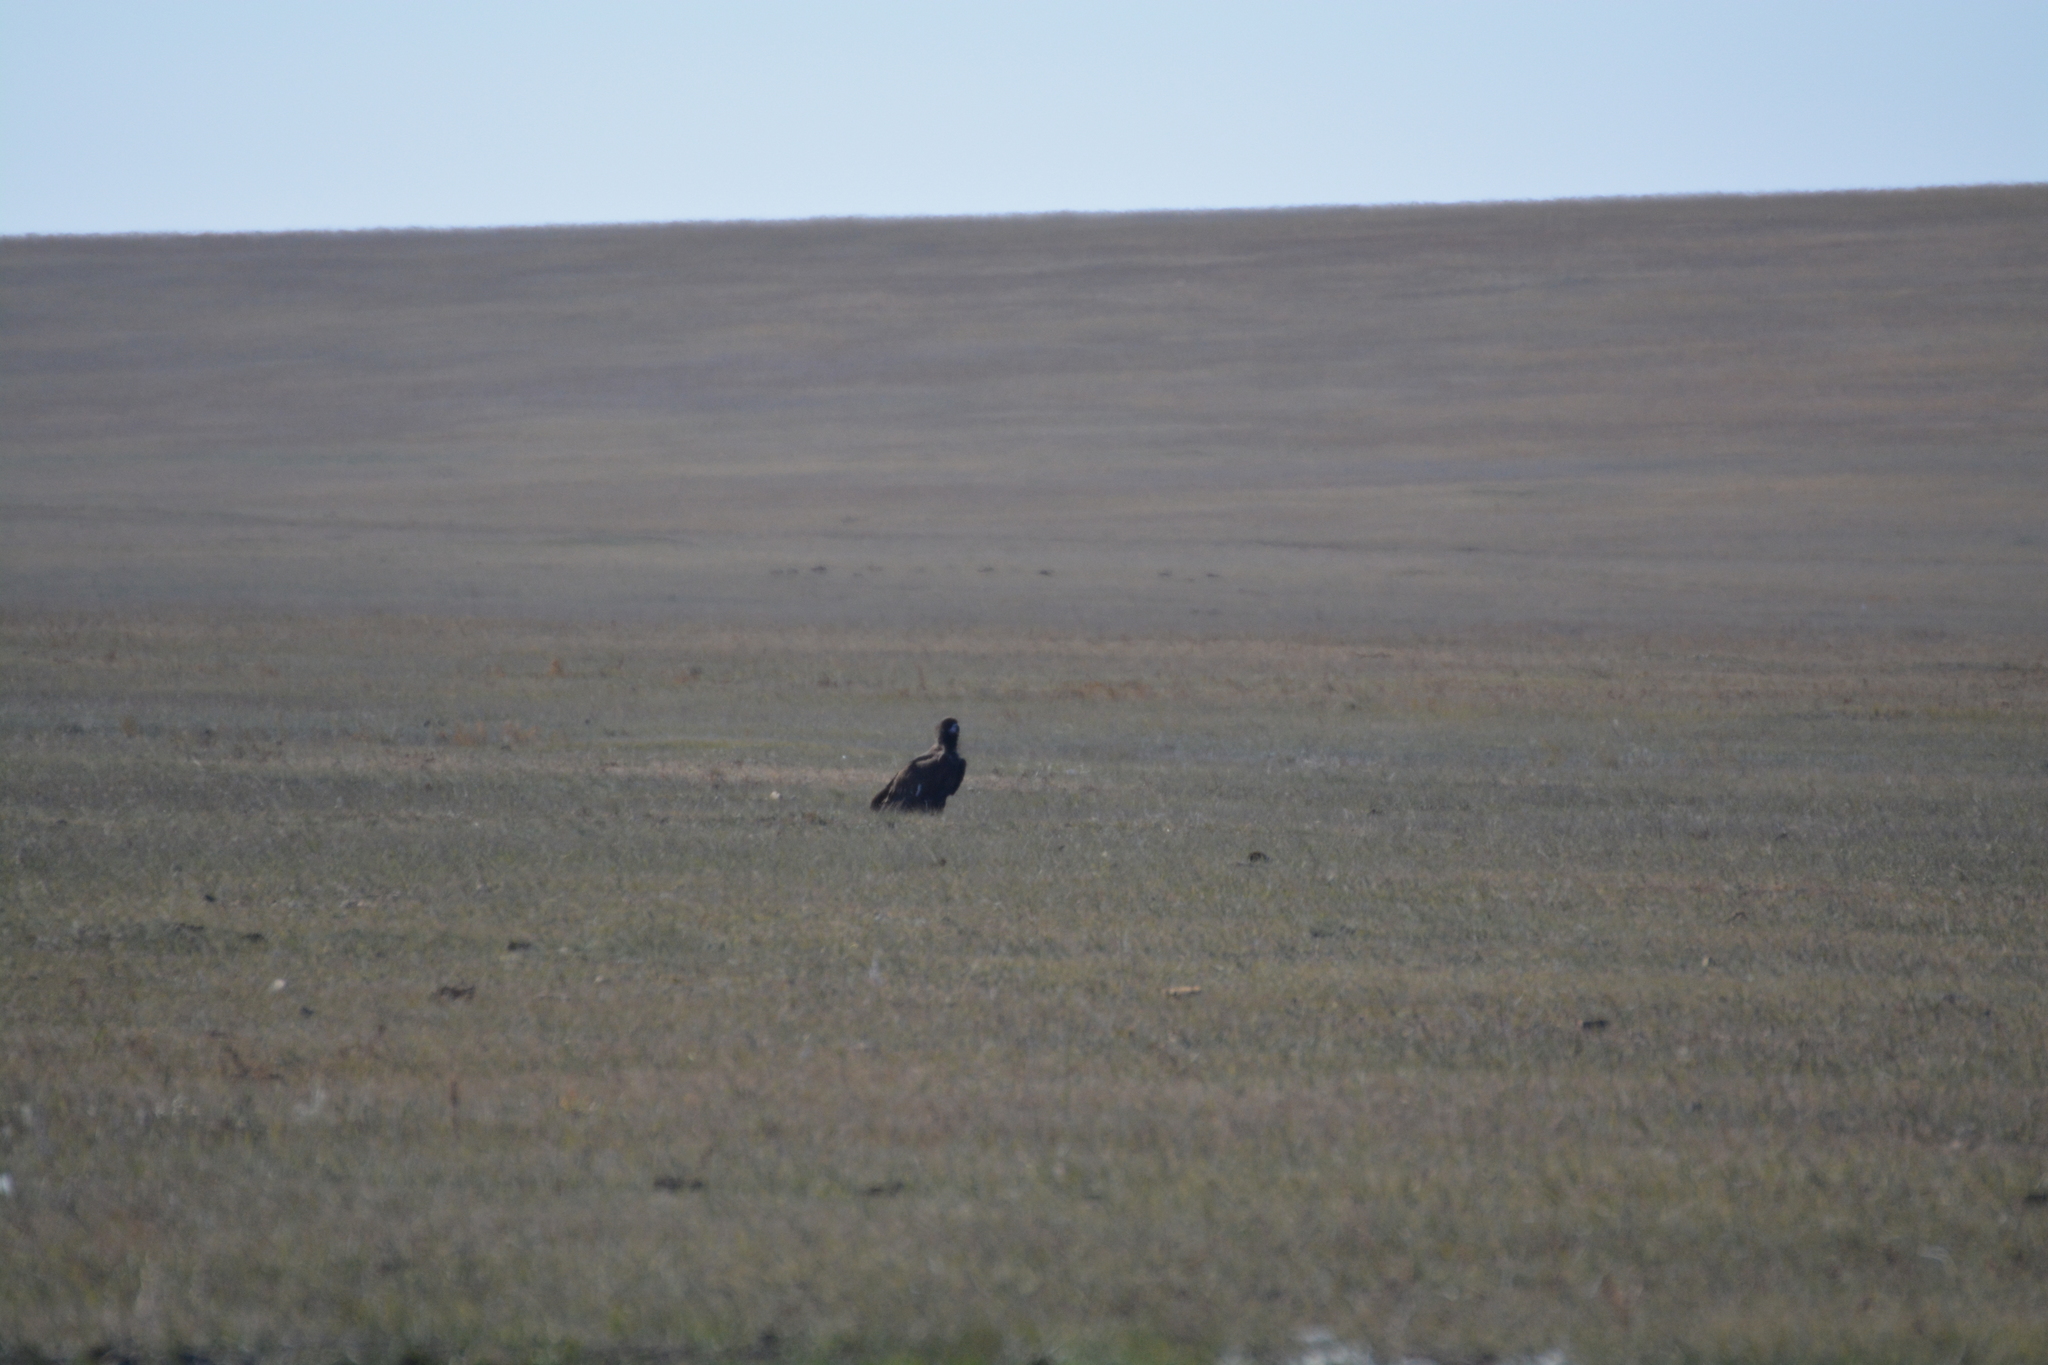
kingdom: Animalia
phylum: Chordata
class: Aves
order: Accipitriformes
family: Accipitridae
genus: Aegypius
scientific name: Aegypius monachus
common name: Cinereous vulture
